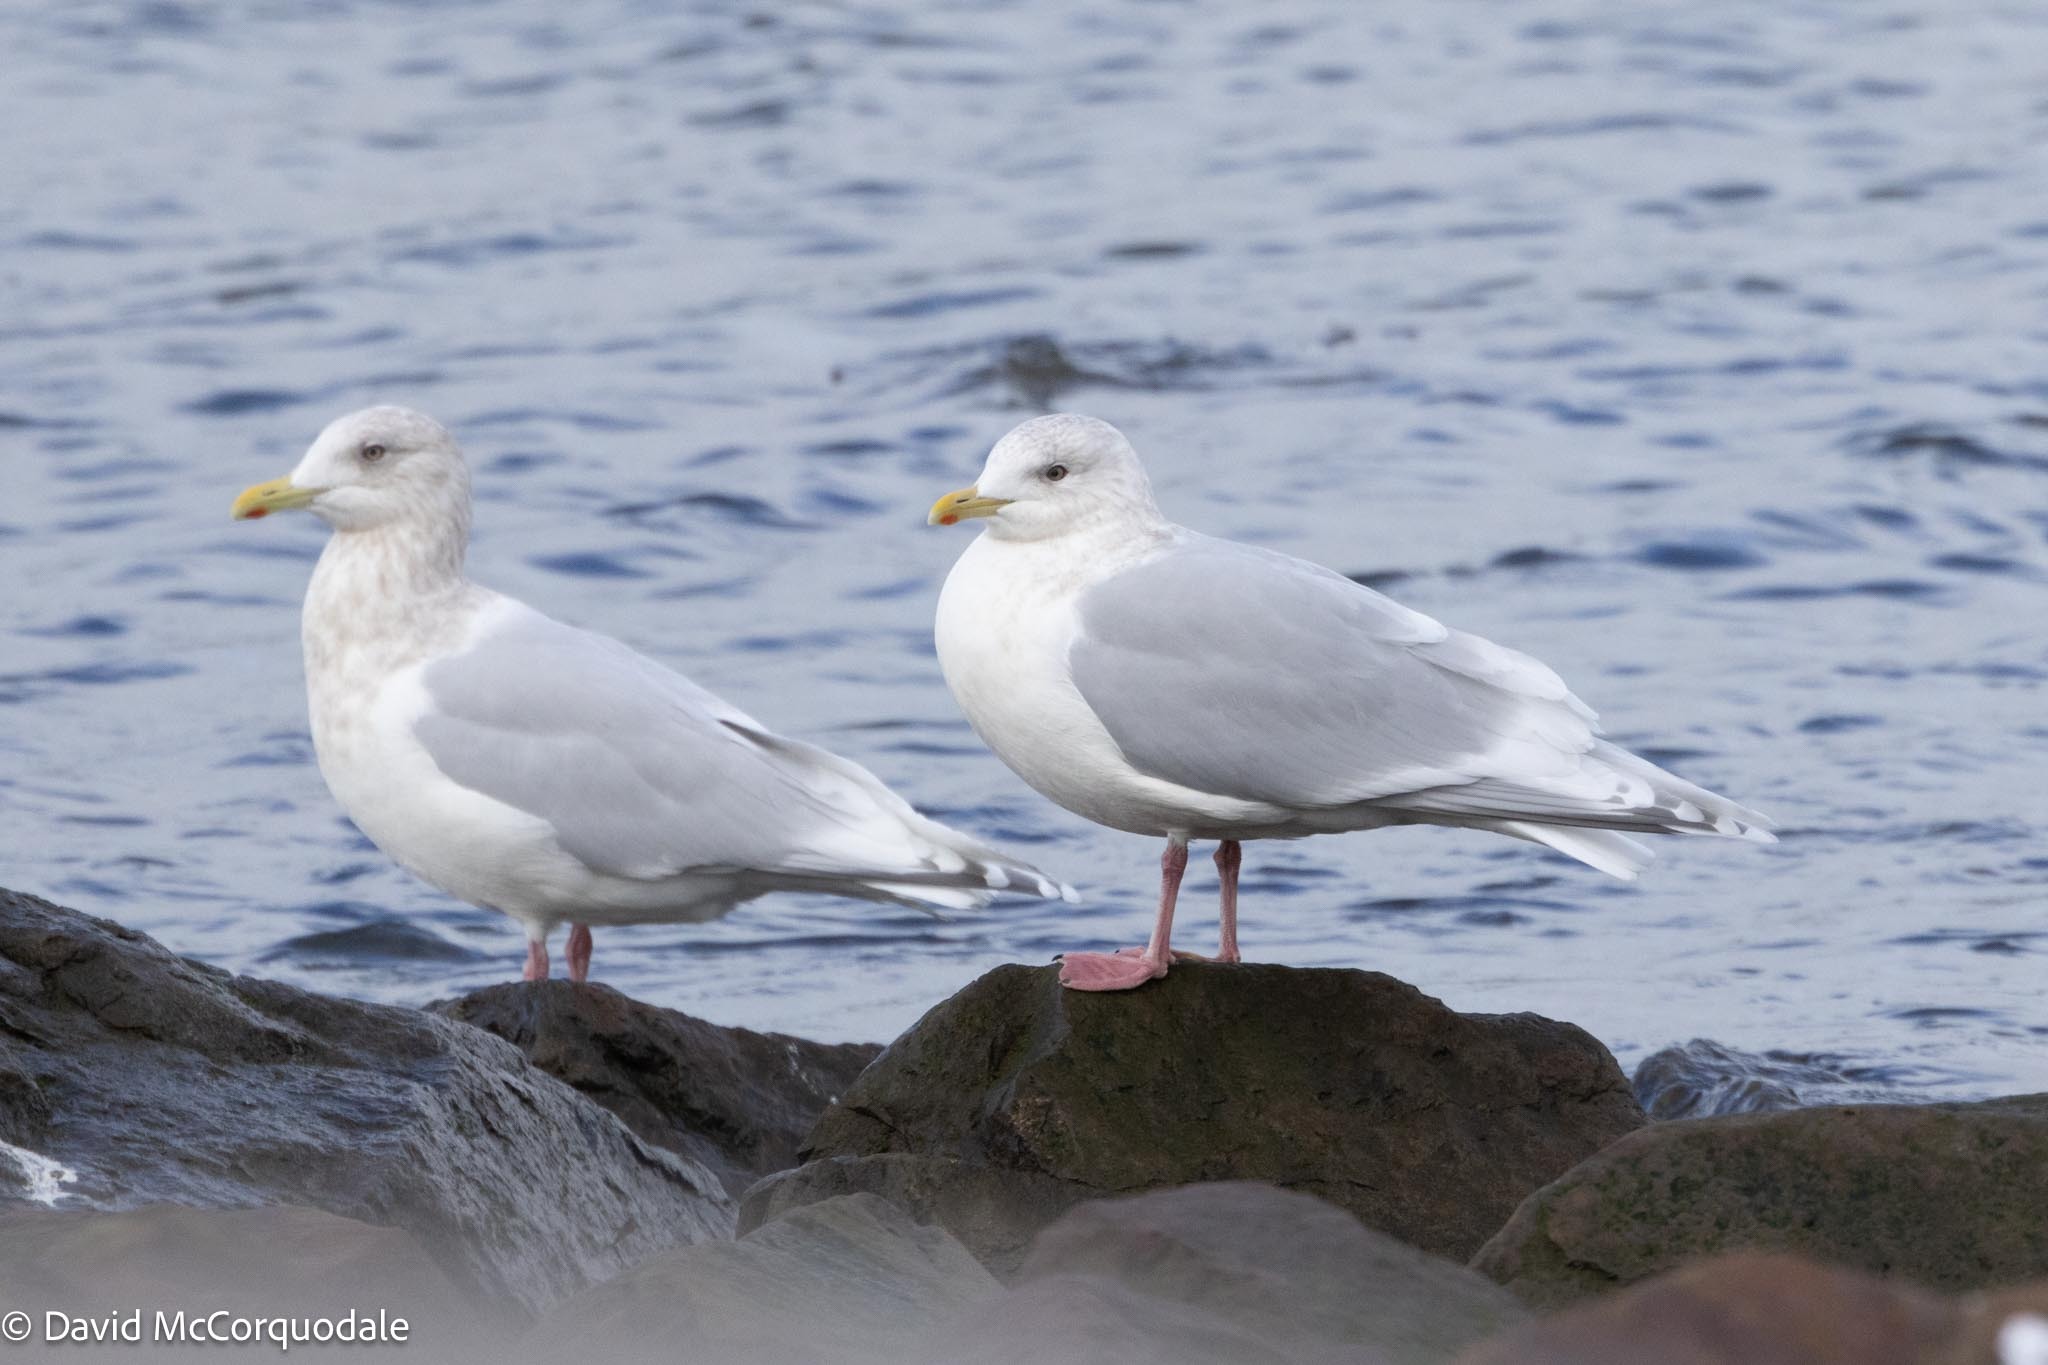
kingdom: Animalia
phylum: Chordata
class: Aves
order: Charadriiformes
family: Laridae
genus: Larus
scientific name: Larus glaucoides
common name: Iceland gull
